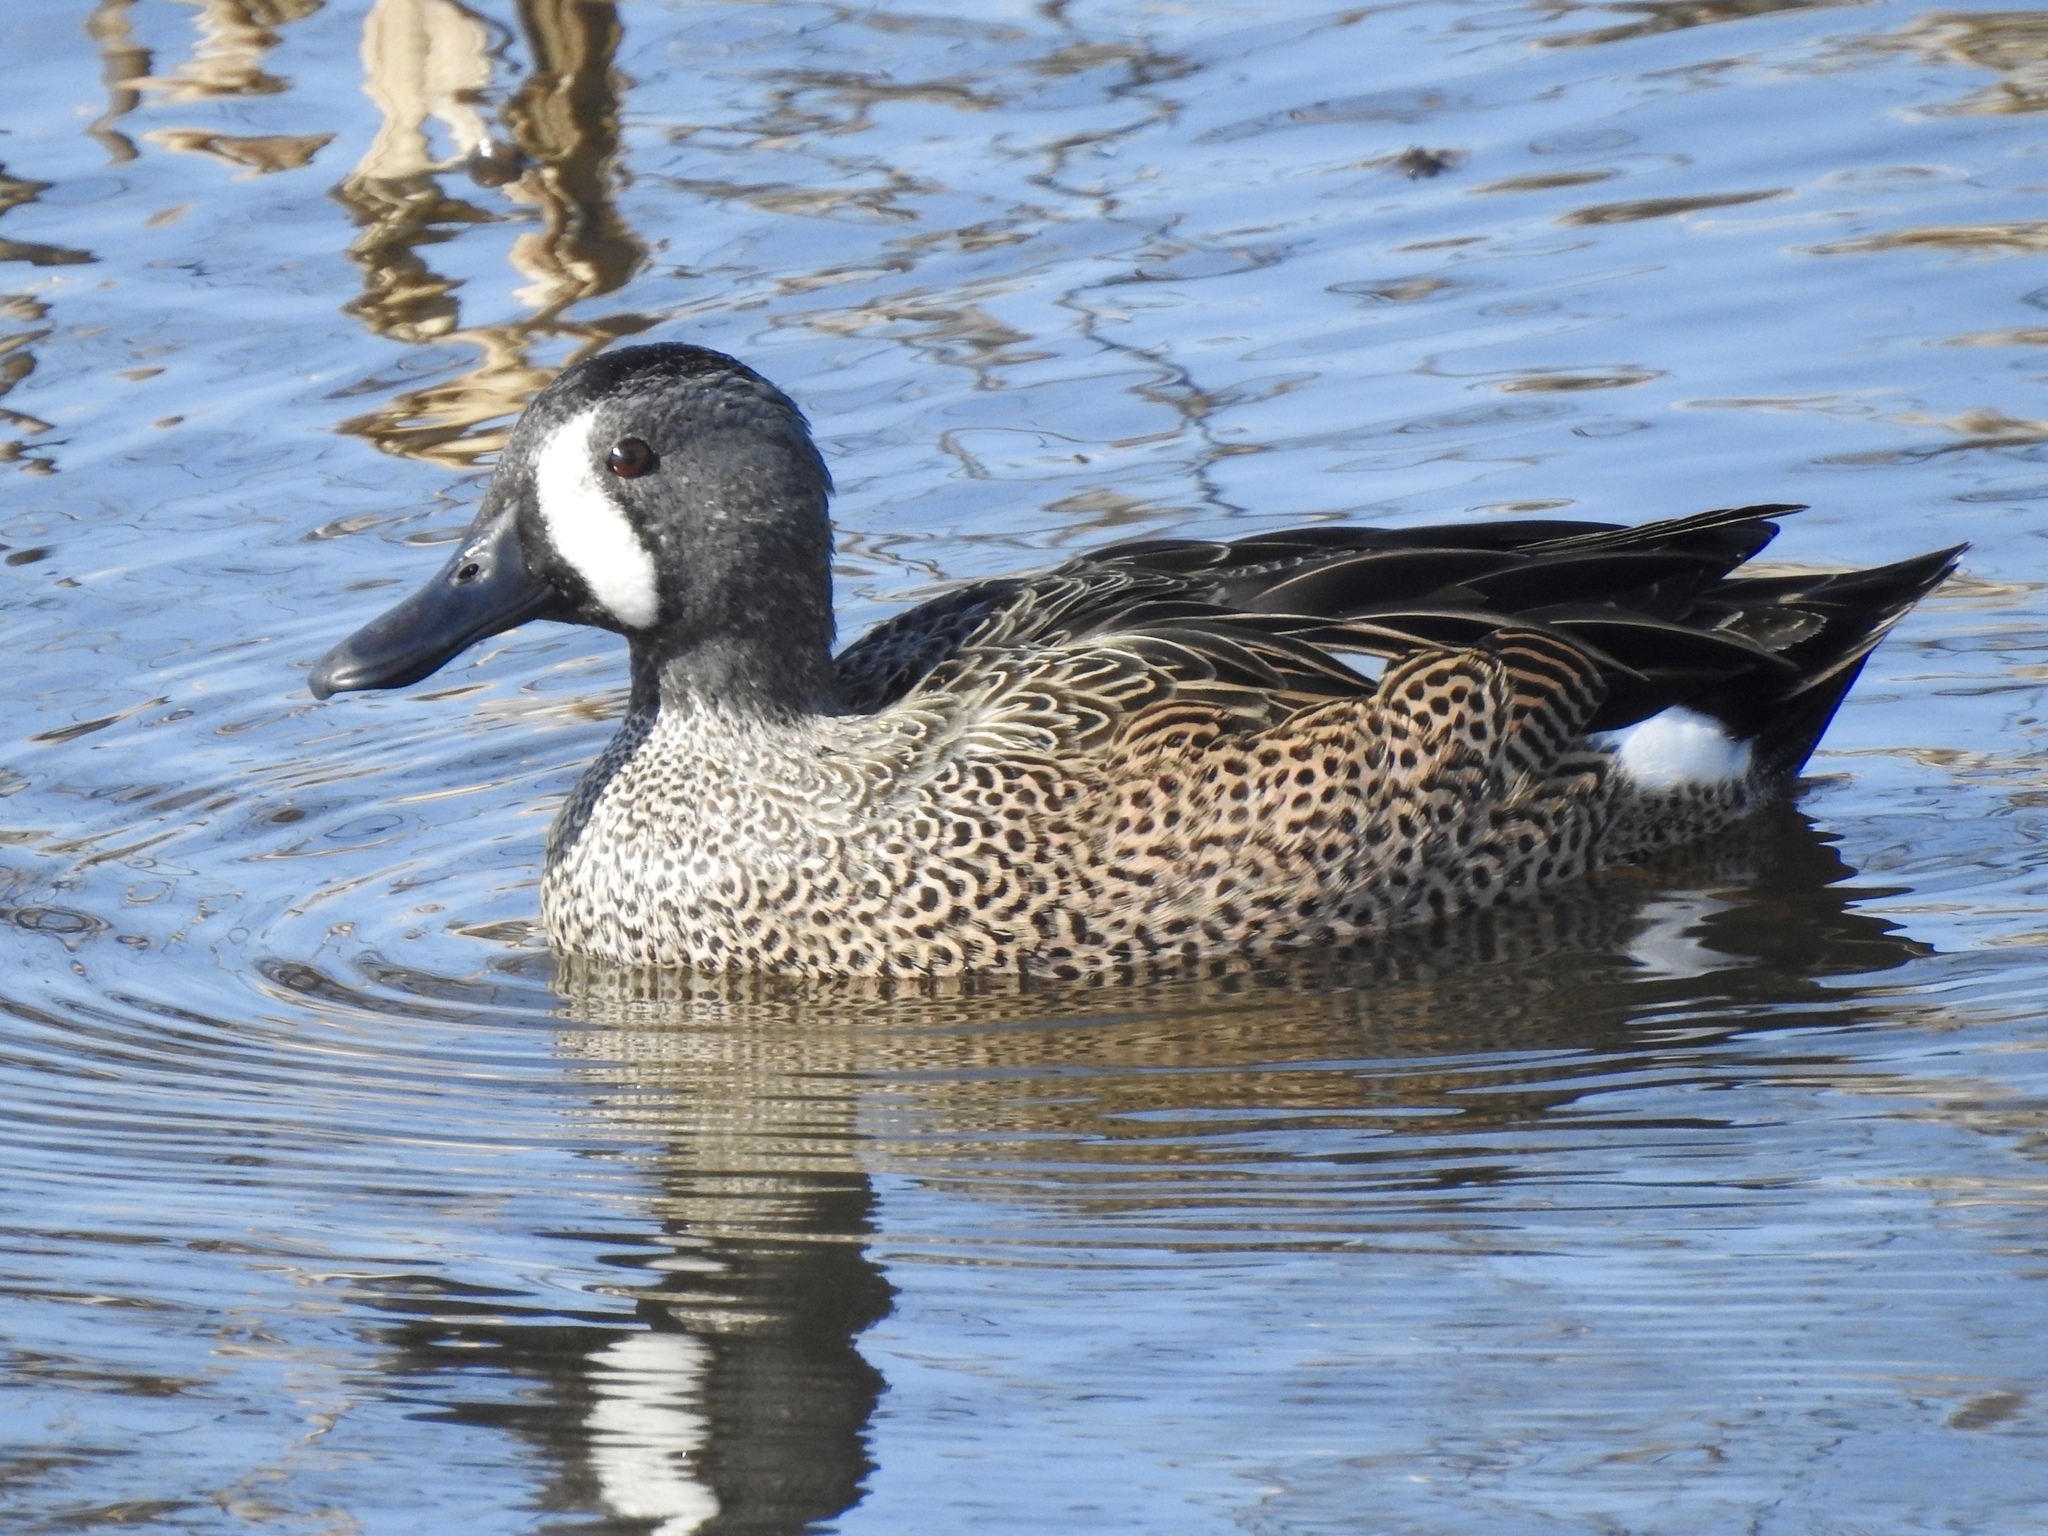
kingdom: Animalia
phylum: Chordata
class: Aves
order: Anseriformes
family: Anatidae
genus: Spatula
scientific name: Spatula discors
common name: Blue-winged teal
